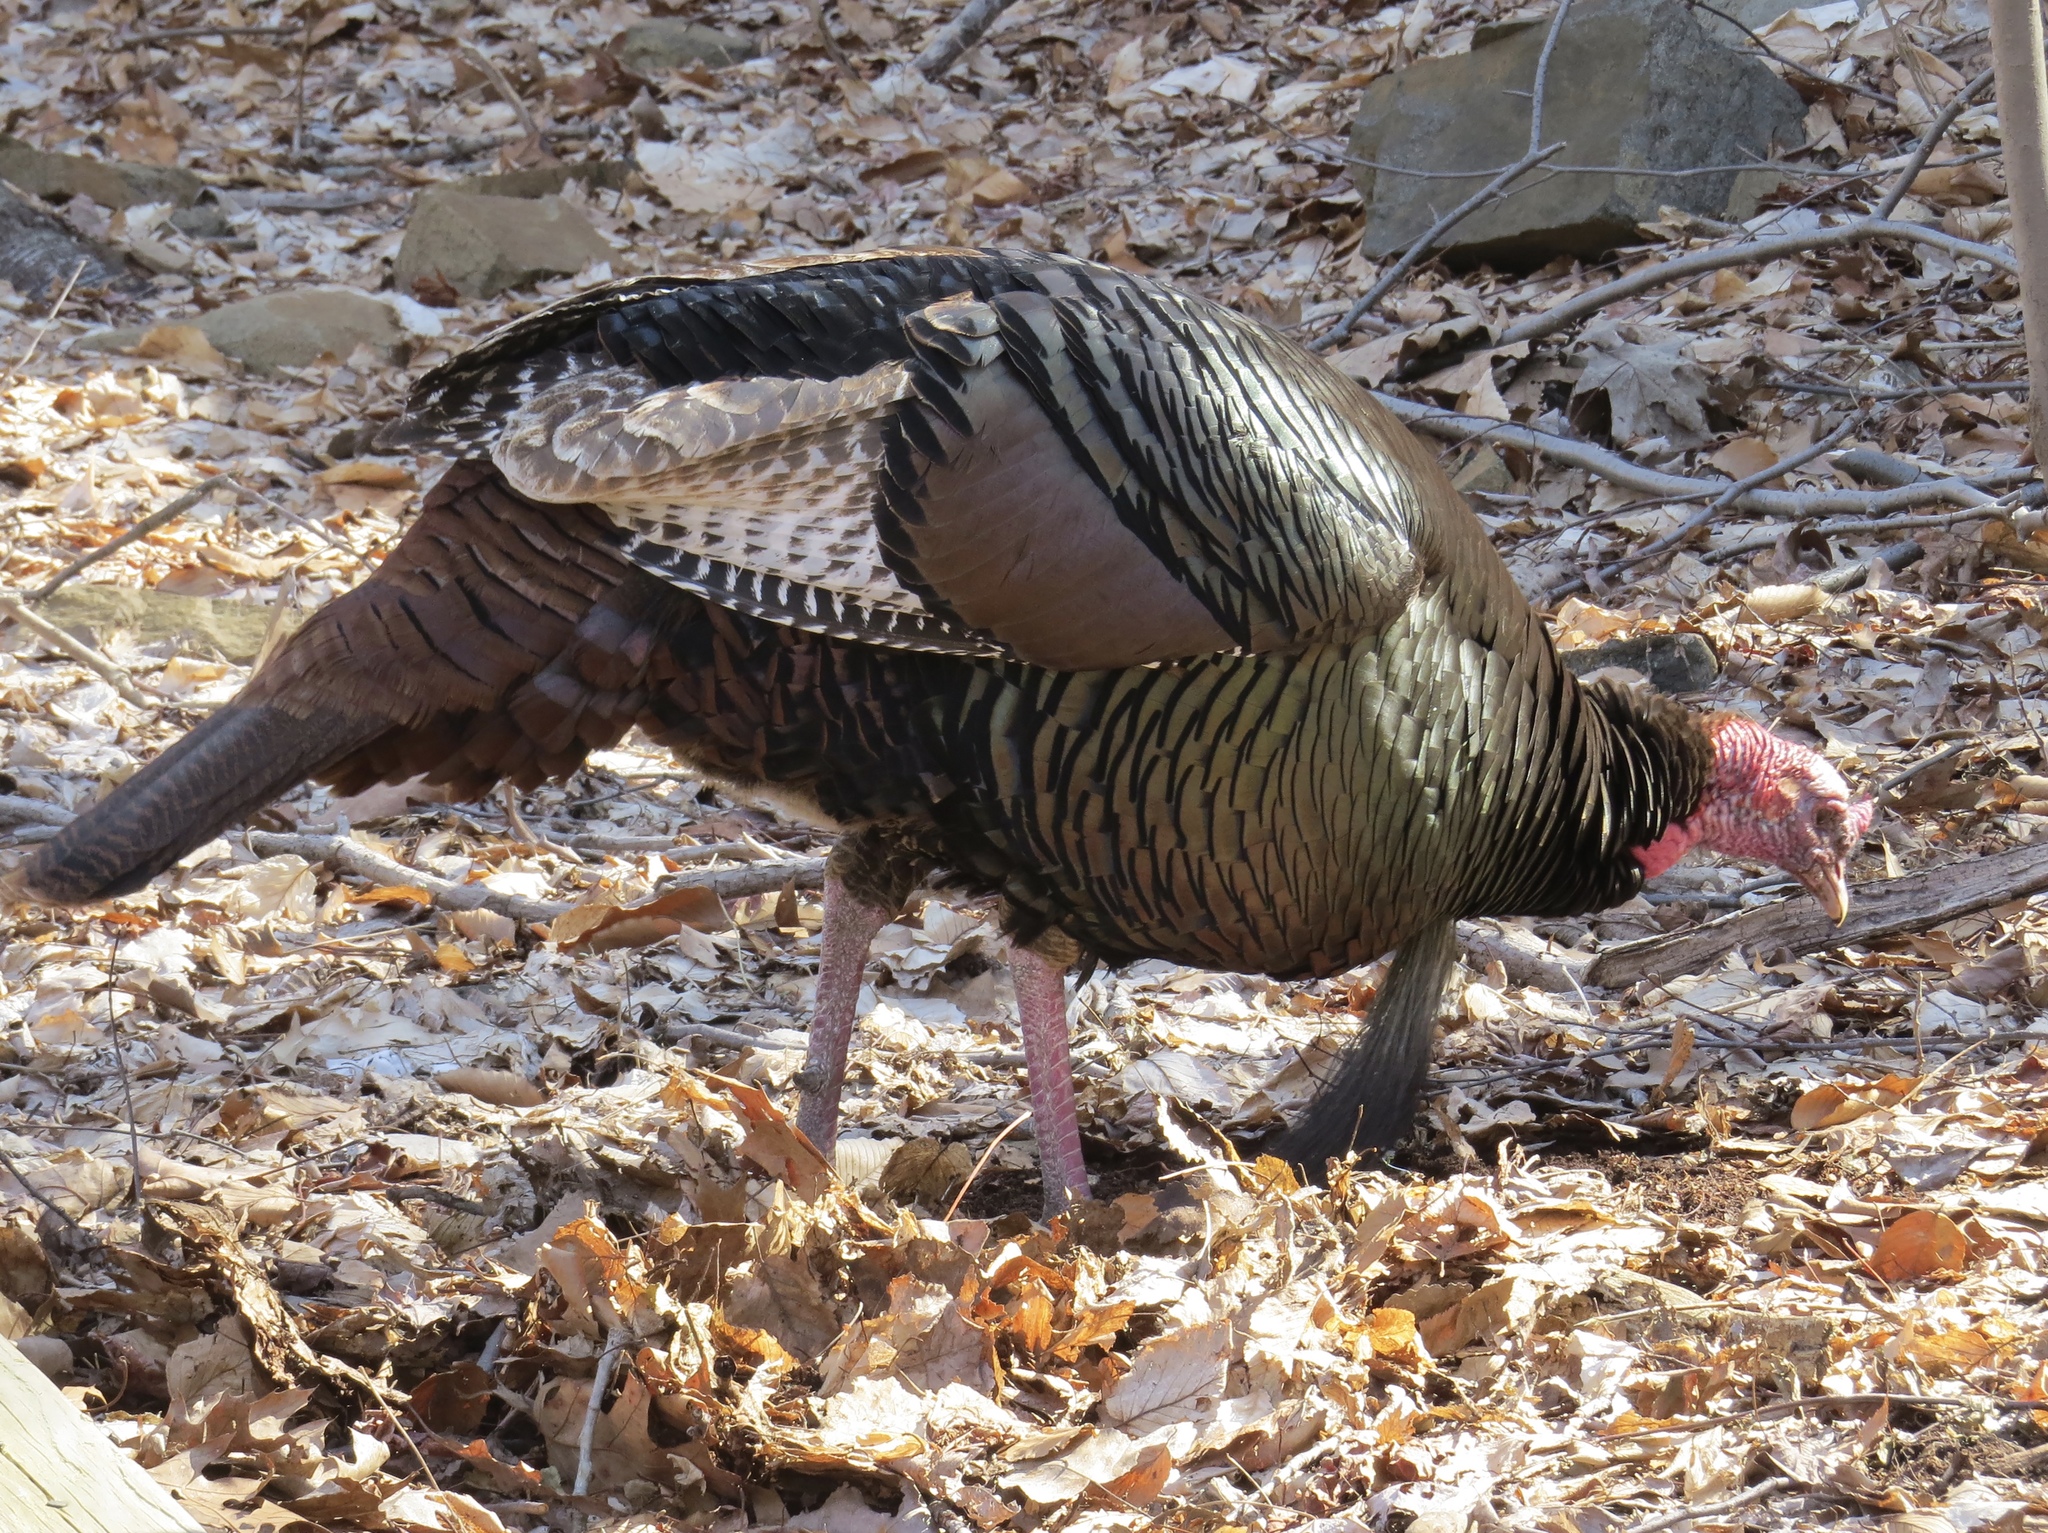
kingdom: Animalia
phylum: Chordata
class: Aves
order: Galliformes
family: Phasianidae
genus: Meleagris
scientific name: Meleagris gallopavo
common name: Wild turkey
